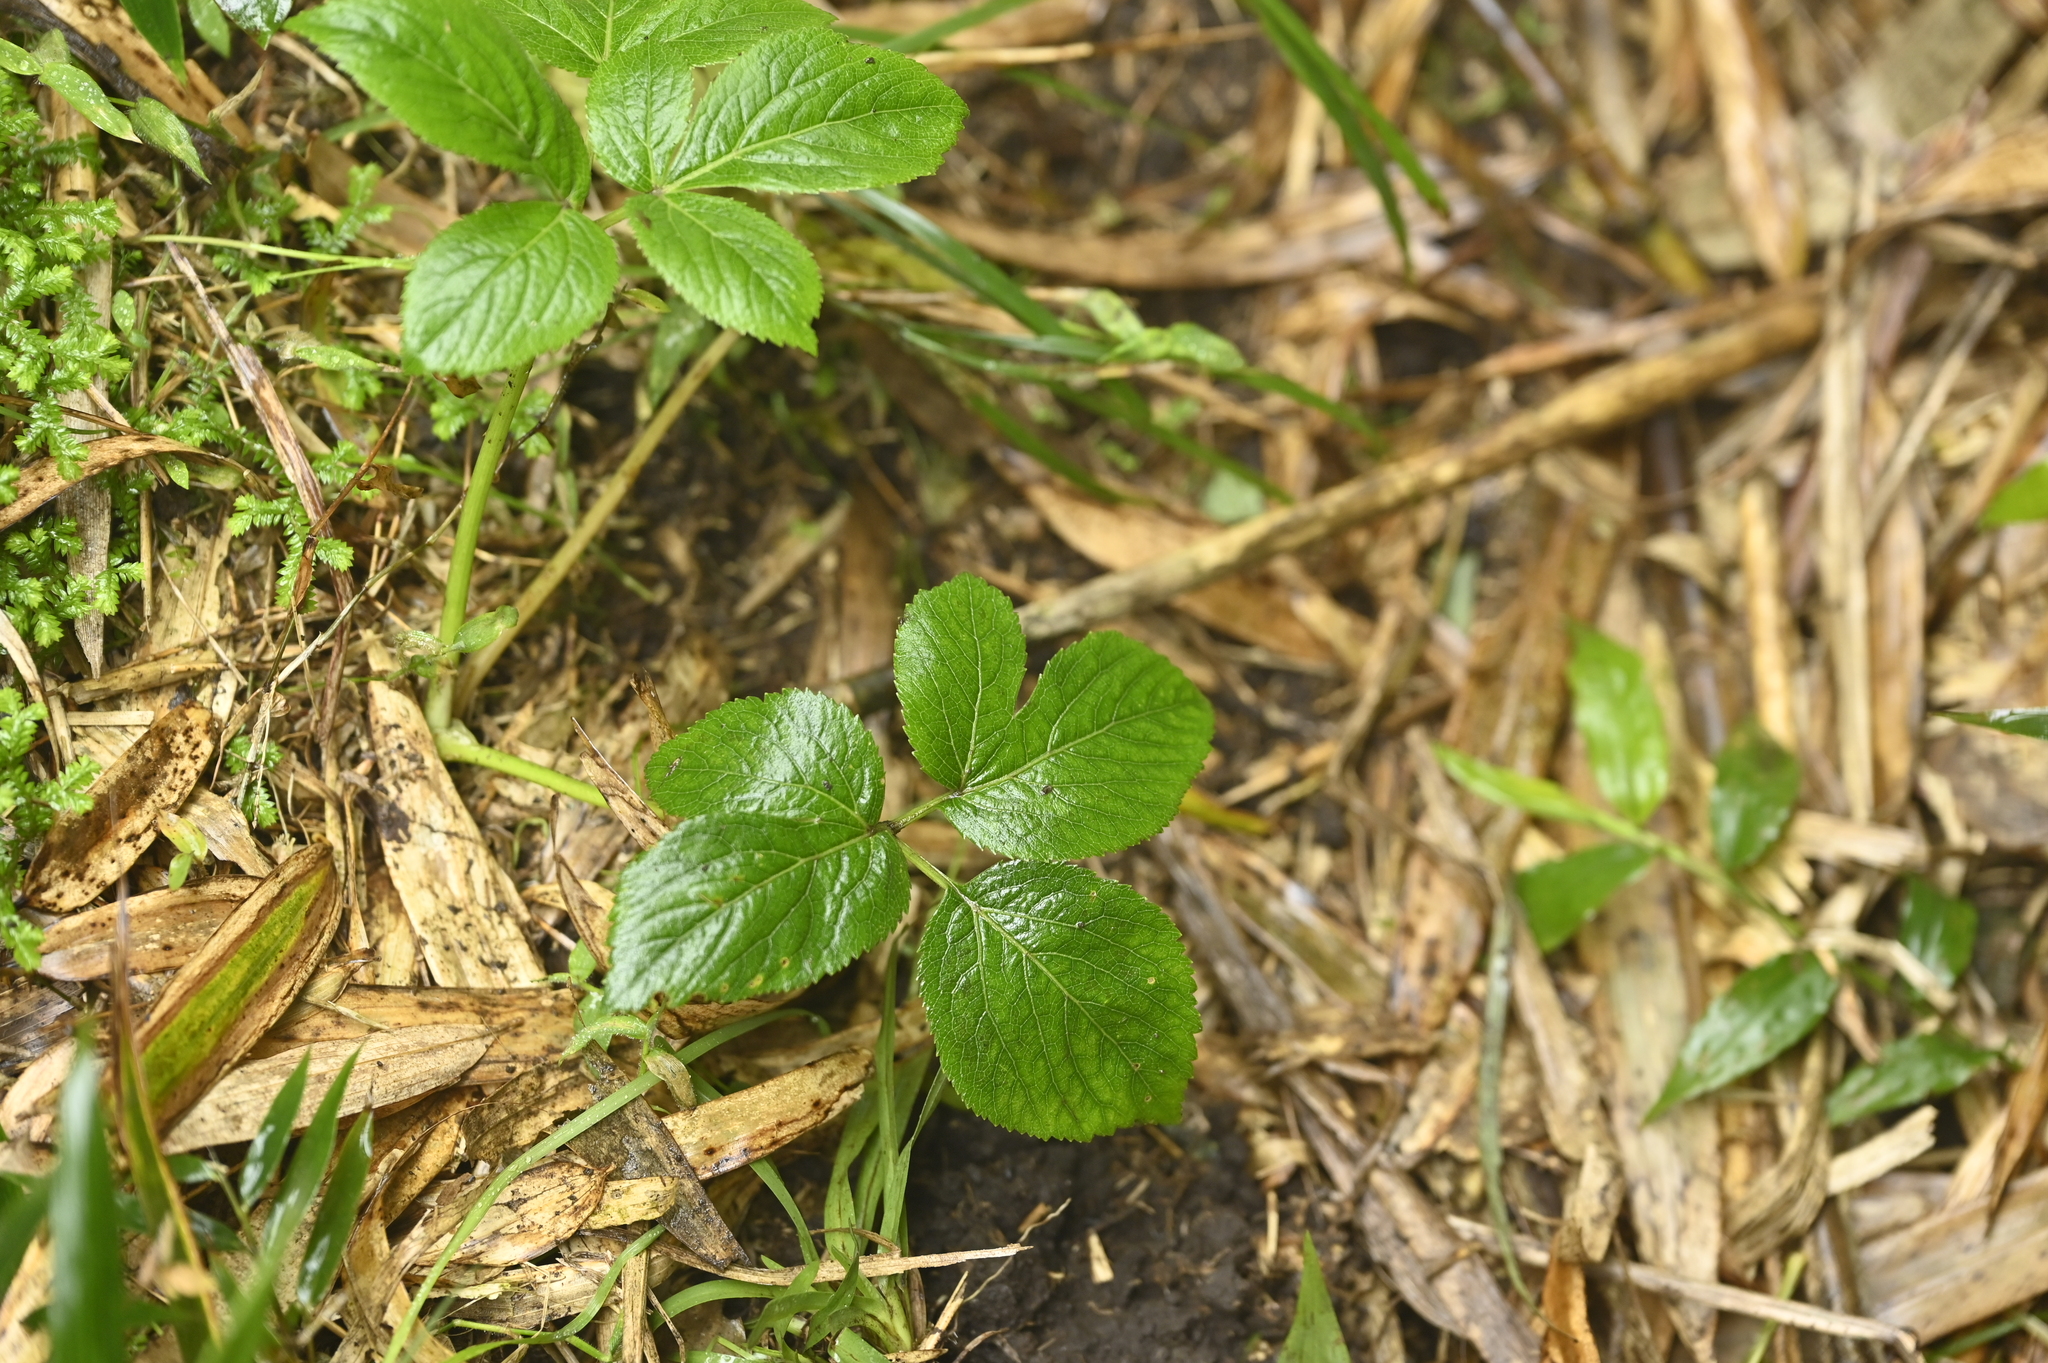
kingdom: Plantae
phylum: Tracheophyta
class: Magnoliopsida
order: Apiales
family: Apiaceae
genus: Angelica
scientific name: Angelica pubescens
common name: Pubescent angelica
